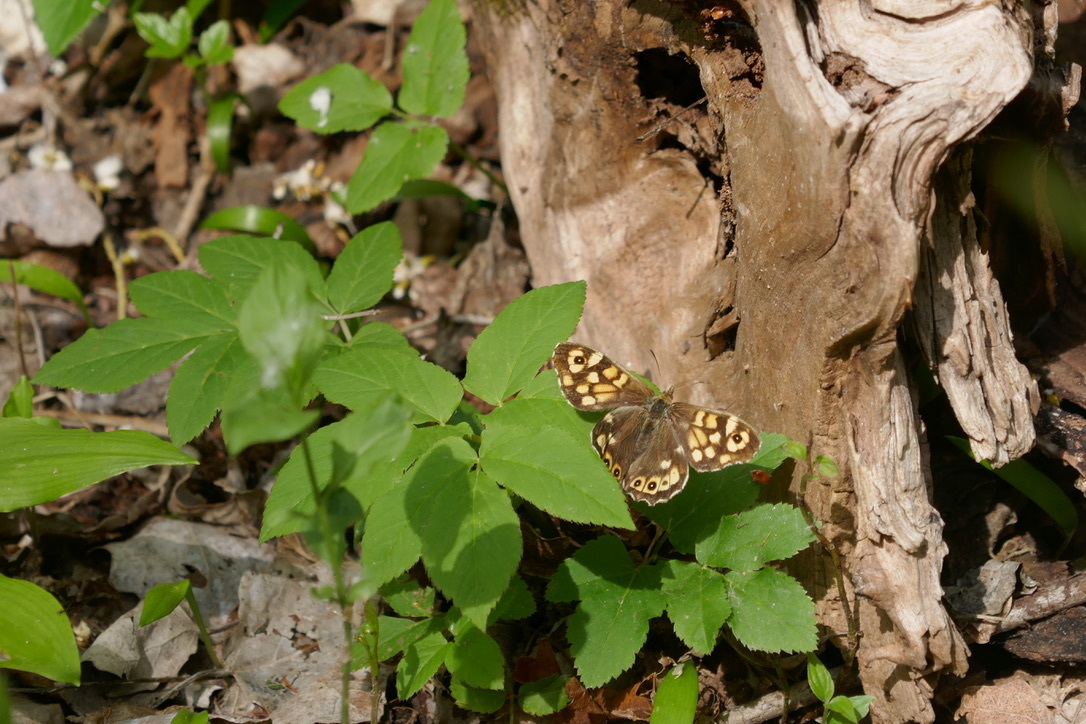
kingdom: Animalia
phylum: Arthropoda
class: Insecta
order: Lepidoptera
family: Nymphalidae
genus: Pararge
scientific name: Pararge aegeria
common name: Speckled wood
